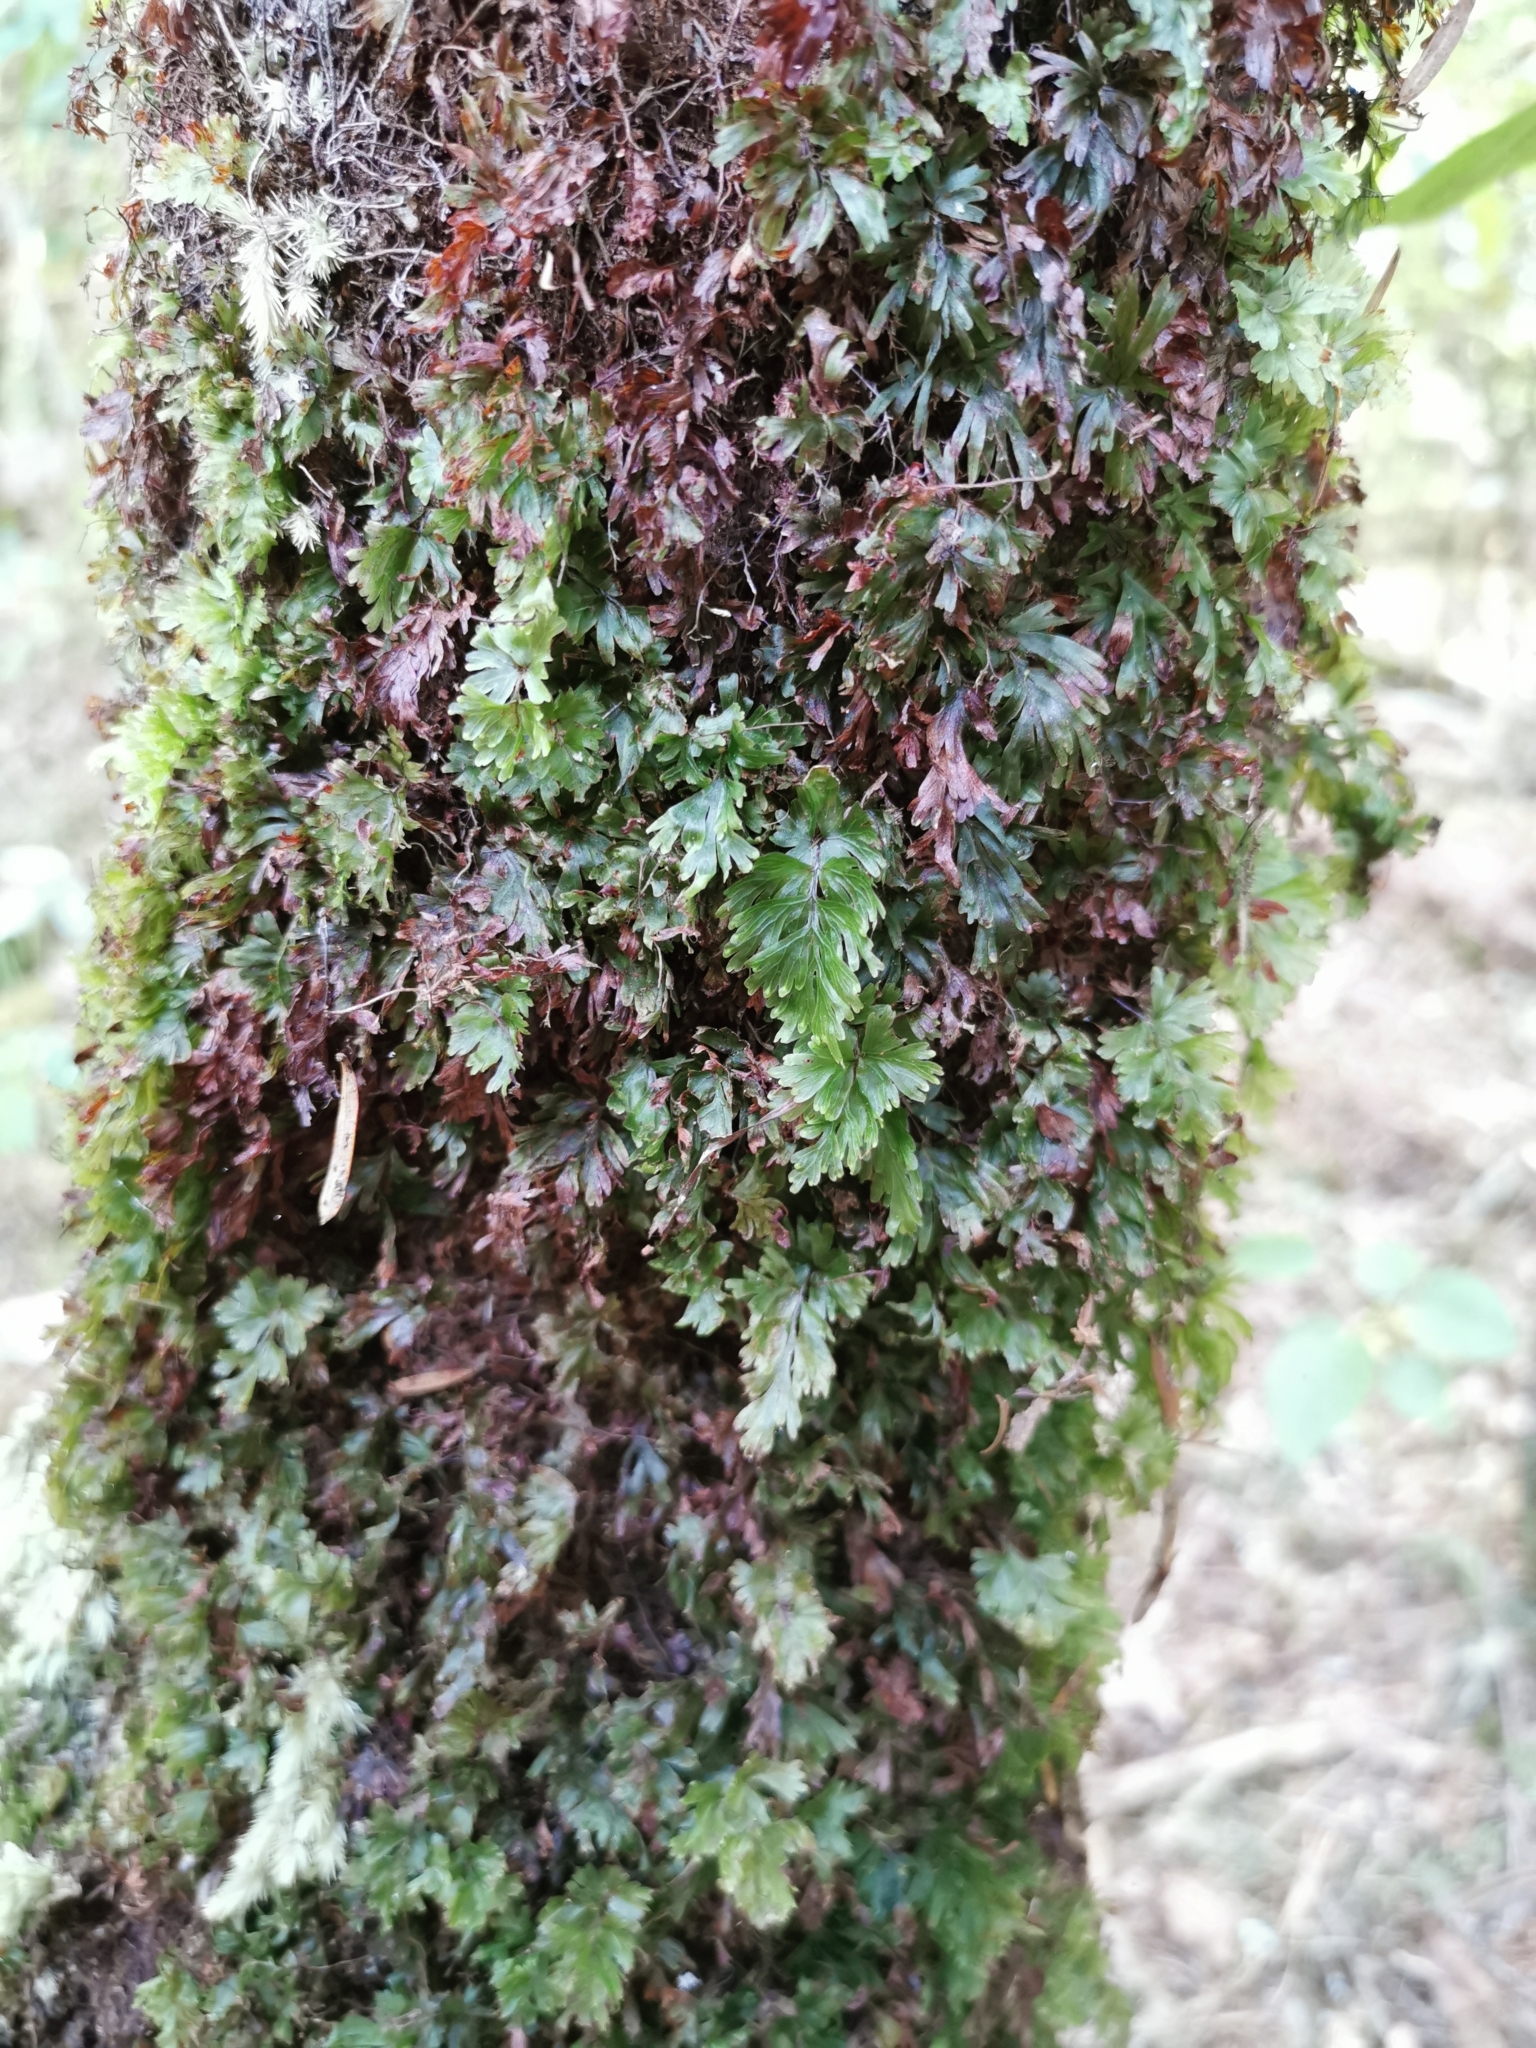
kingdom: Plantae
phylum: Tracheophyta
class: Polypodiopsida
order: Hymenophyllales
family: Hymenophyllaceae
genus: Hymenophyllum
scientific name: Hymenophyllum flabellatum
